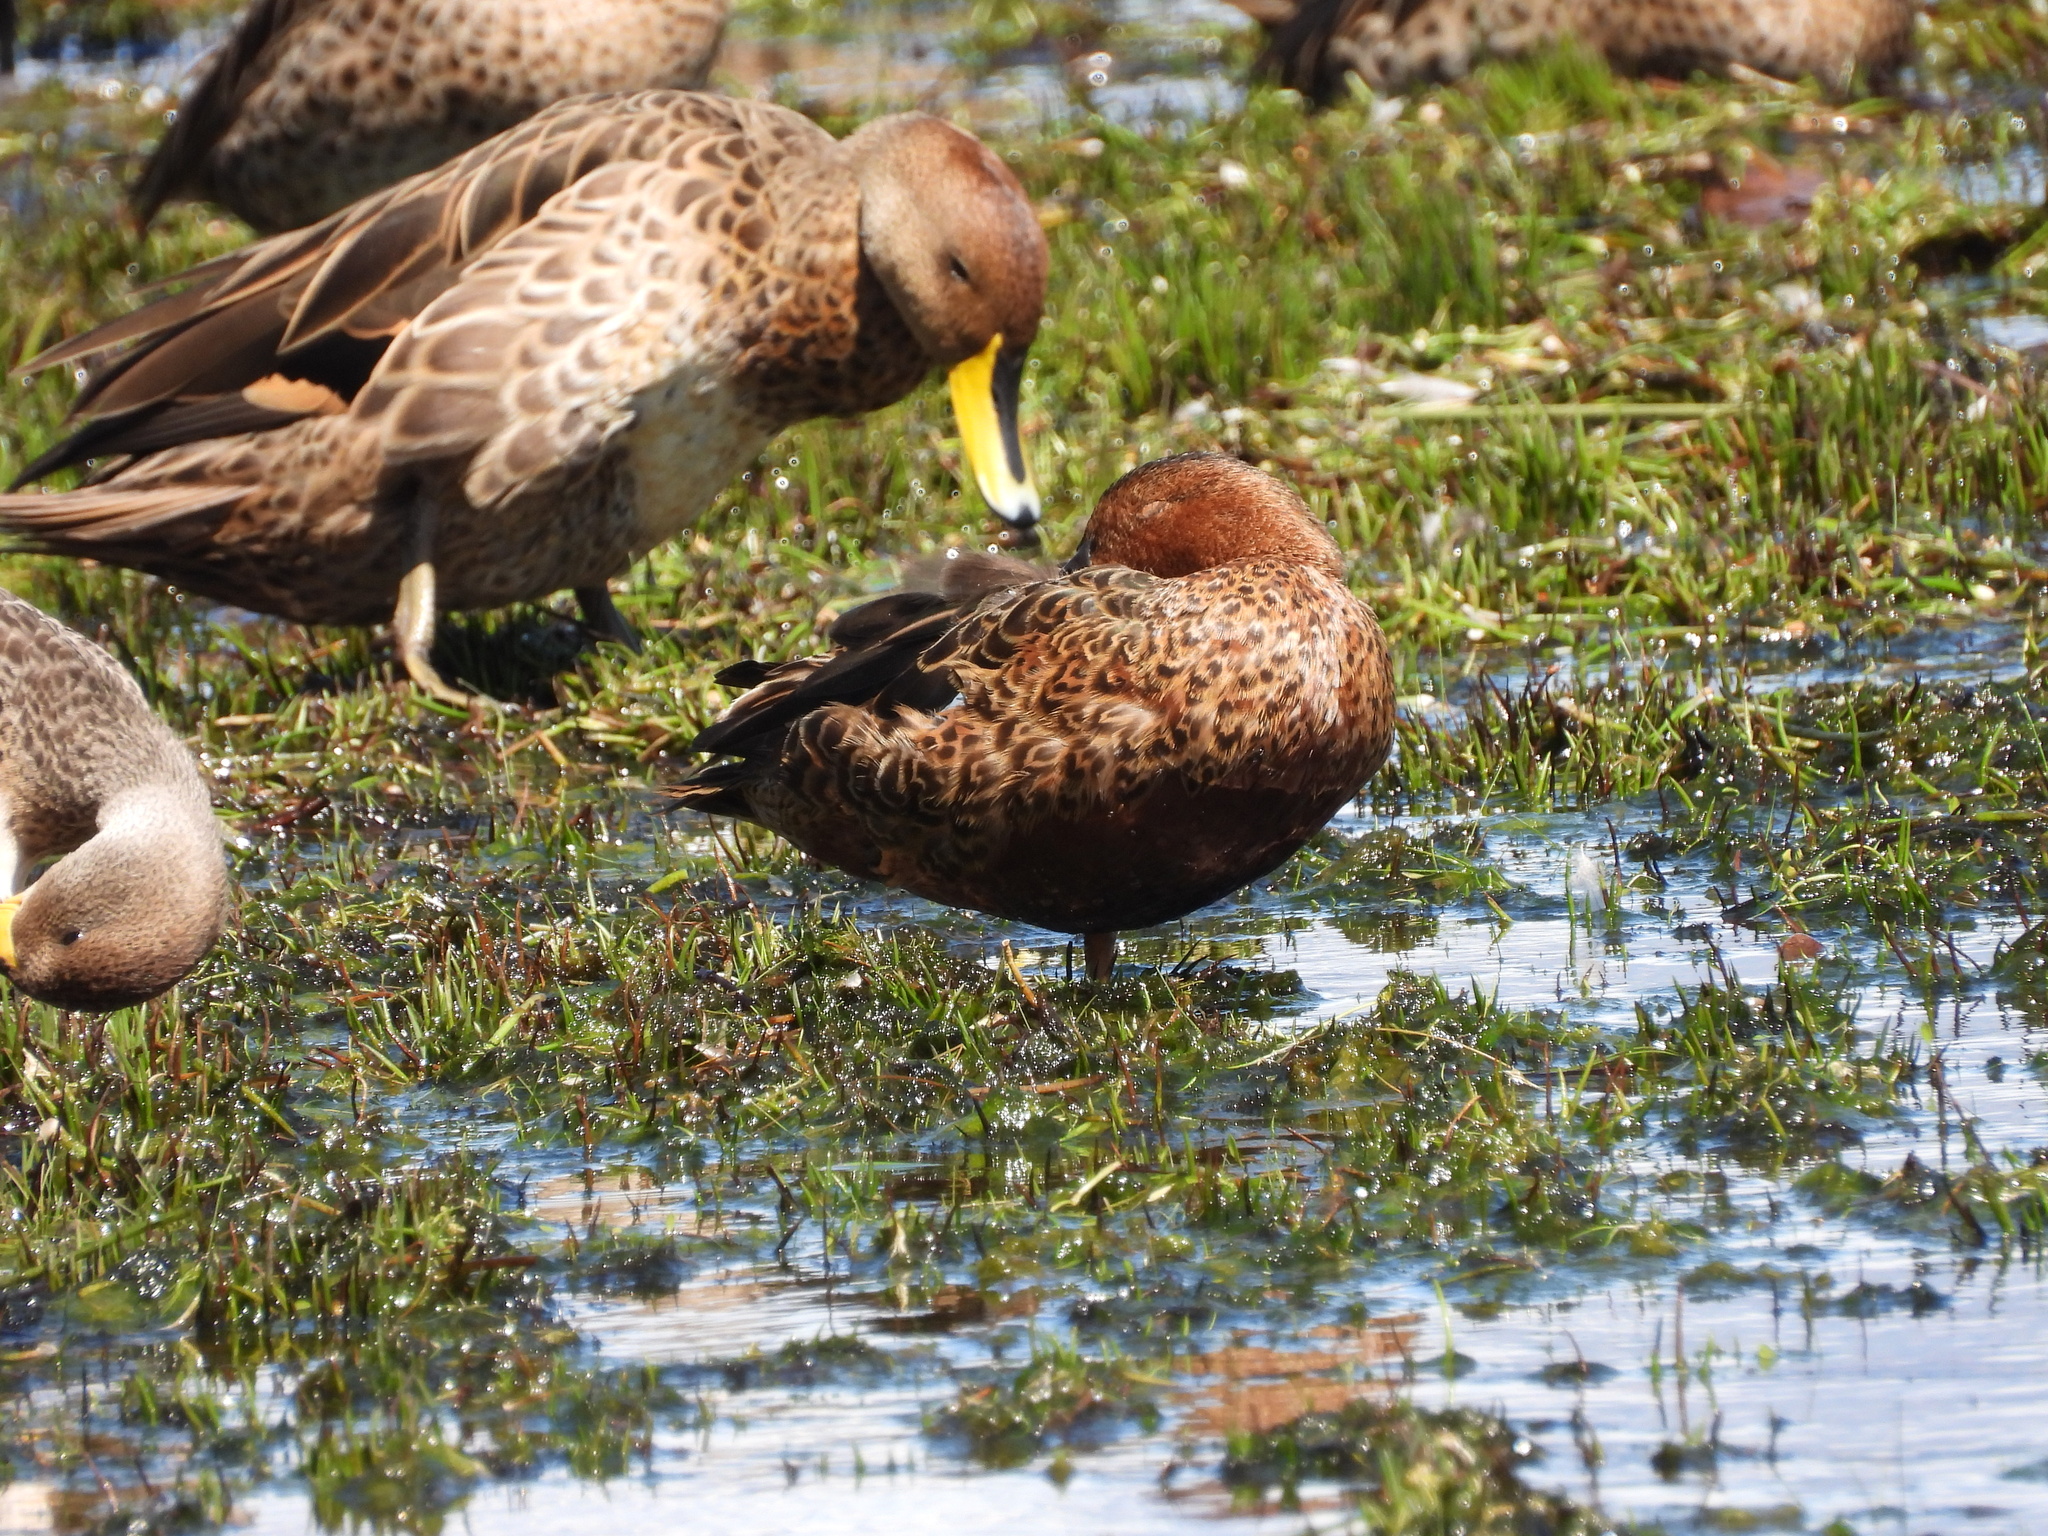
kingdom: Animalia
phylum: Chordata
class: Aves
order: Anseriformes
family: Anatidae
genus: Spatula
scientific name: Spatula cyanoptera
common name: Cinnamon teal
